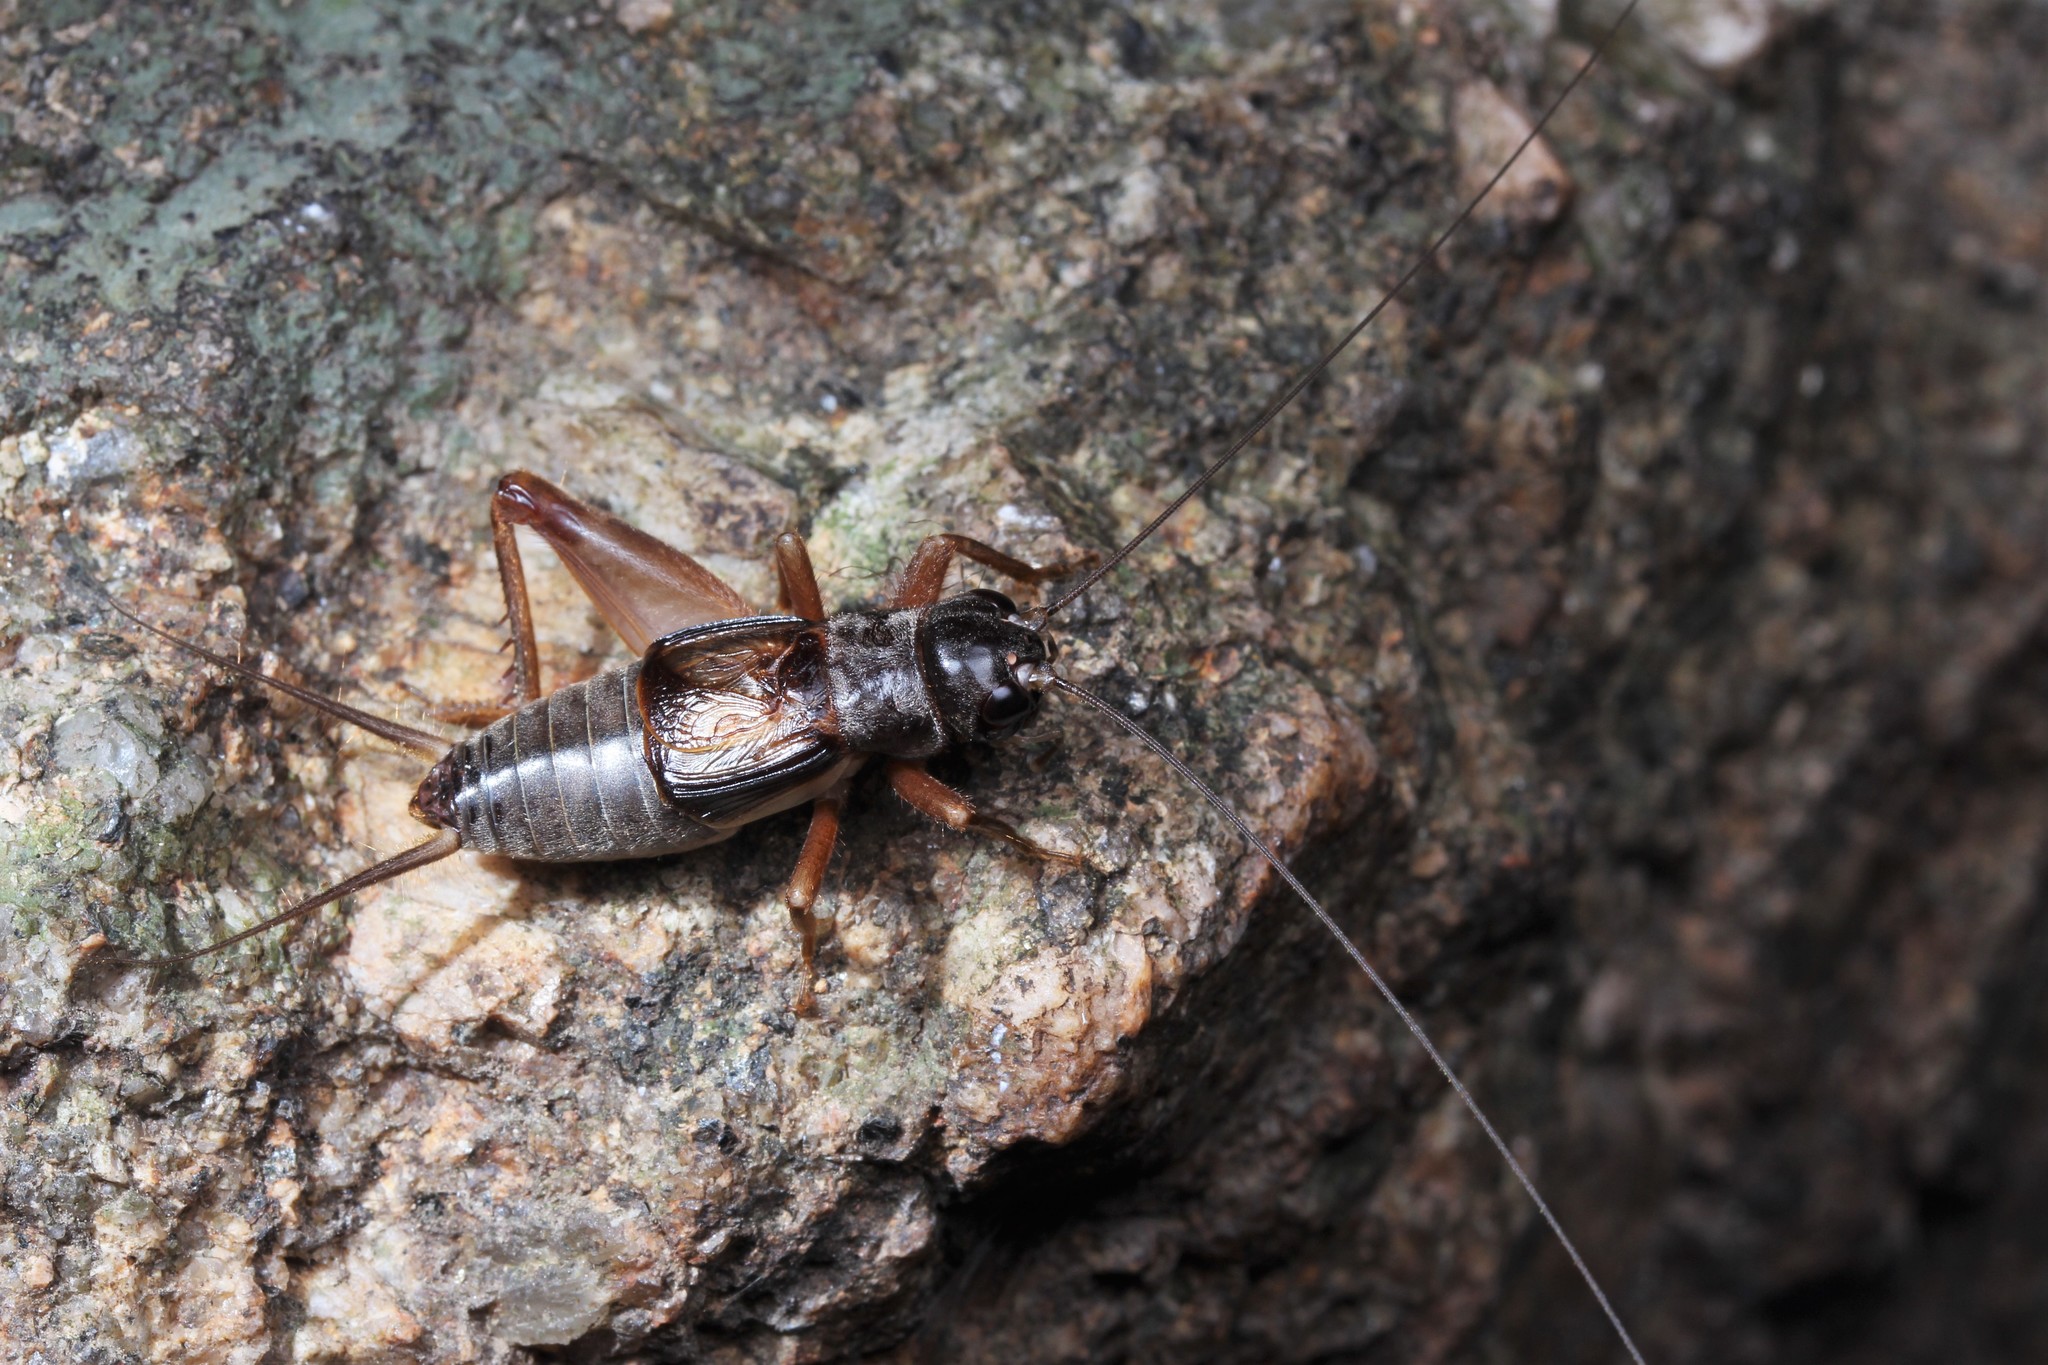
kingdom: Animalia
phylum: Arthropoda
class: Insecta
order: Orthoptera
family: Gryllidae
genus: Duolandrevus
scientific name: Duolandrevus dendrophilus
